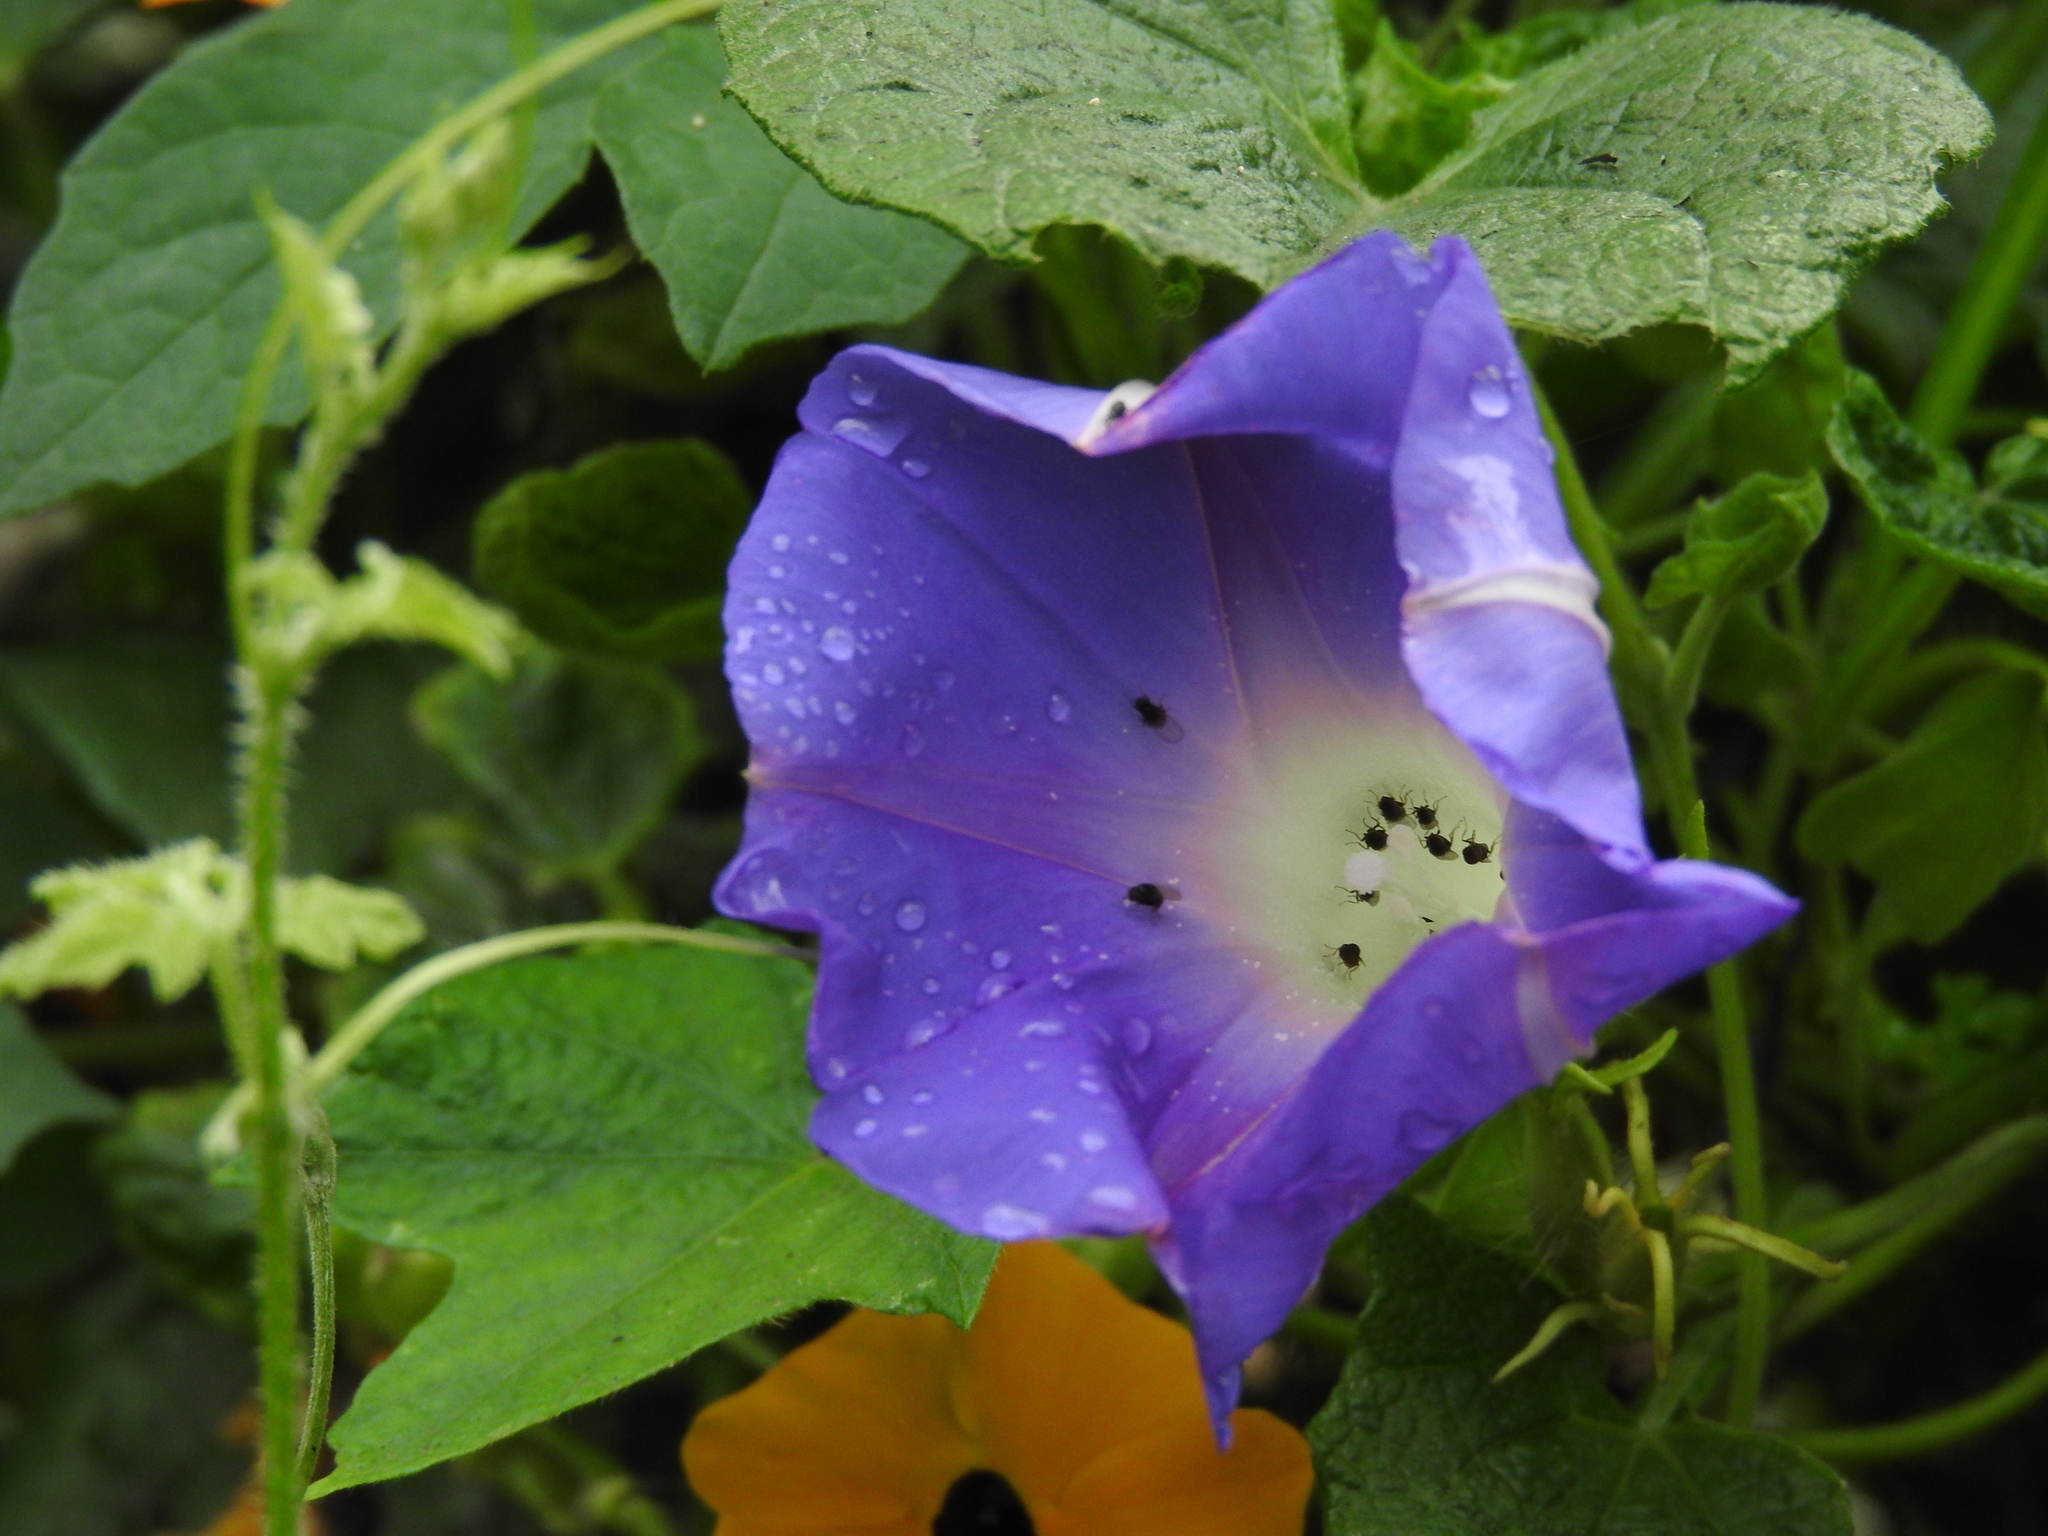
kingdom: Plantae
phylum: Tracheophyta
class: Magnoliopsida
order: Solanales
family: Convolvulaceae
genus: Ipomoea
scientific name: Ipomoea nil
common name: Japanese morning-glory
